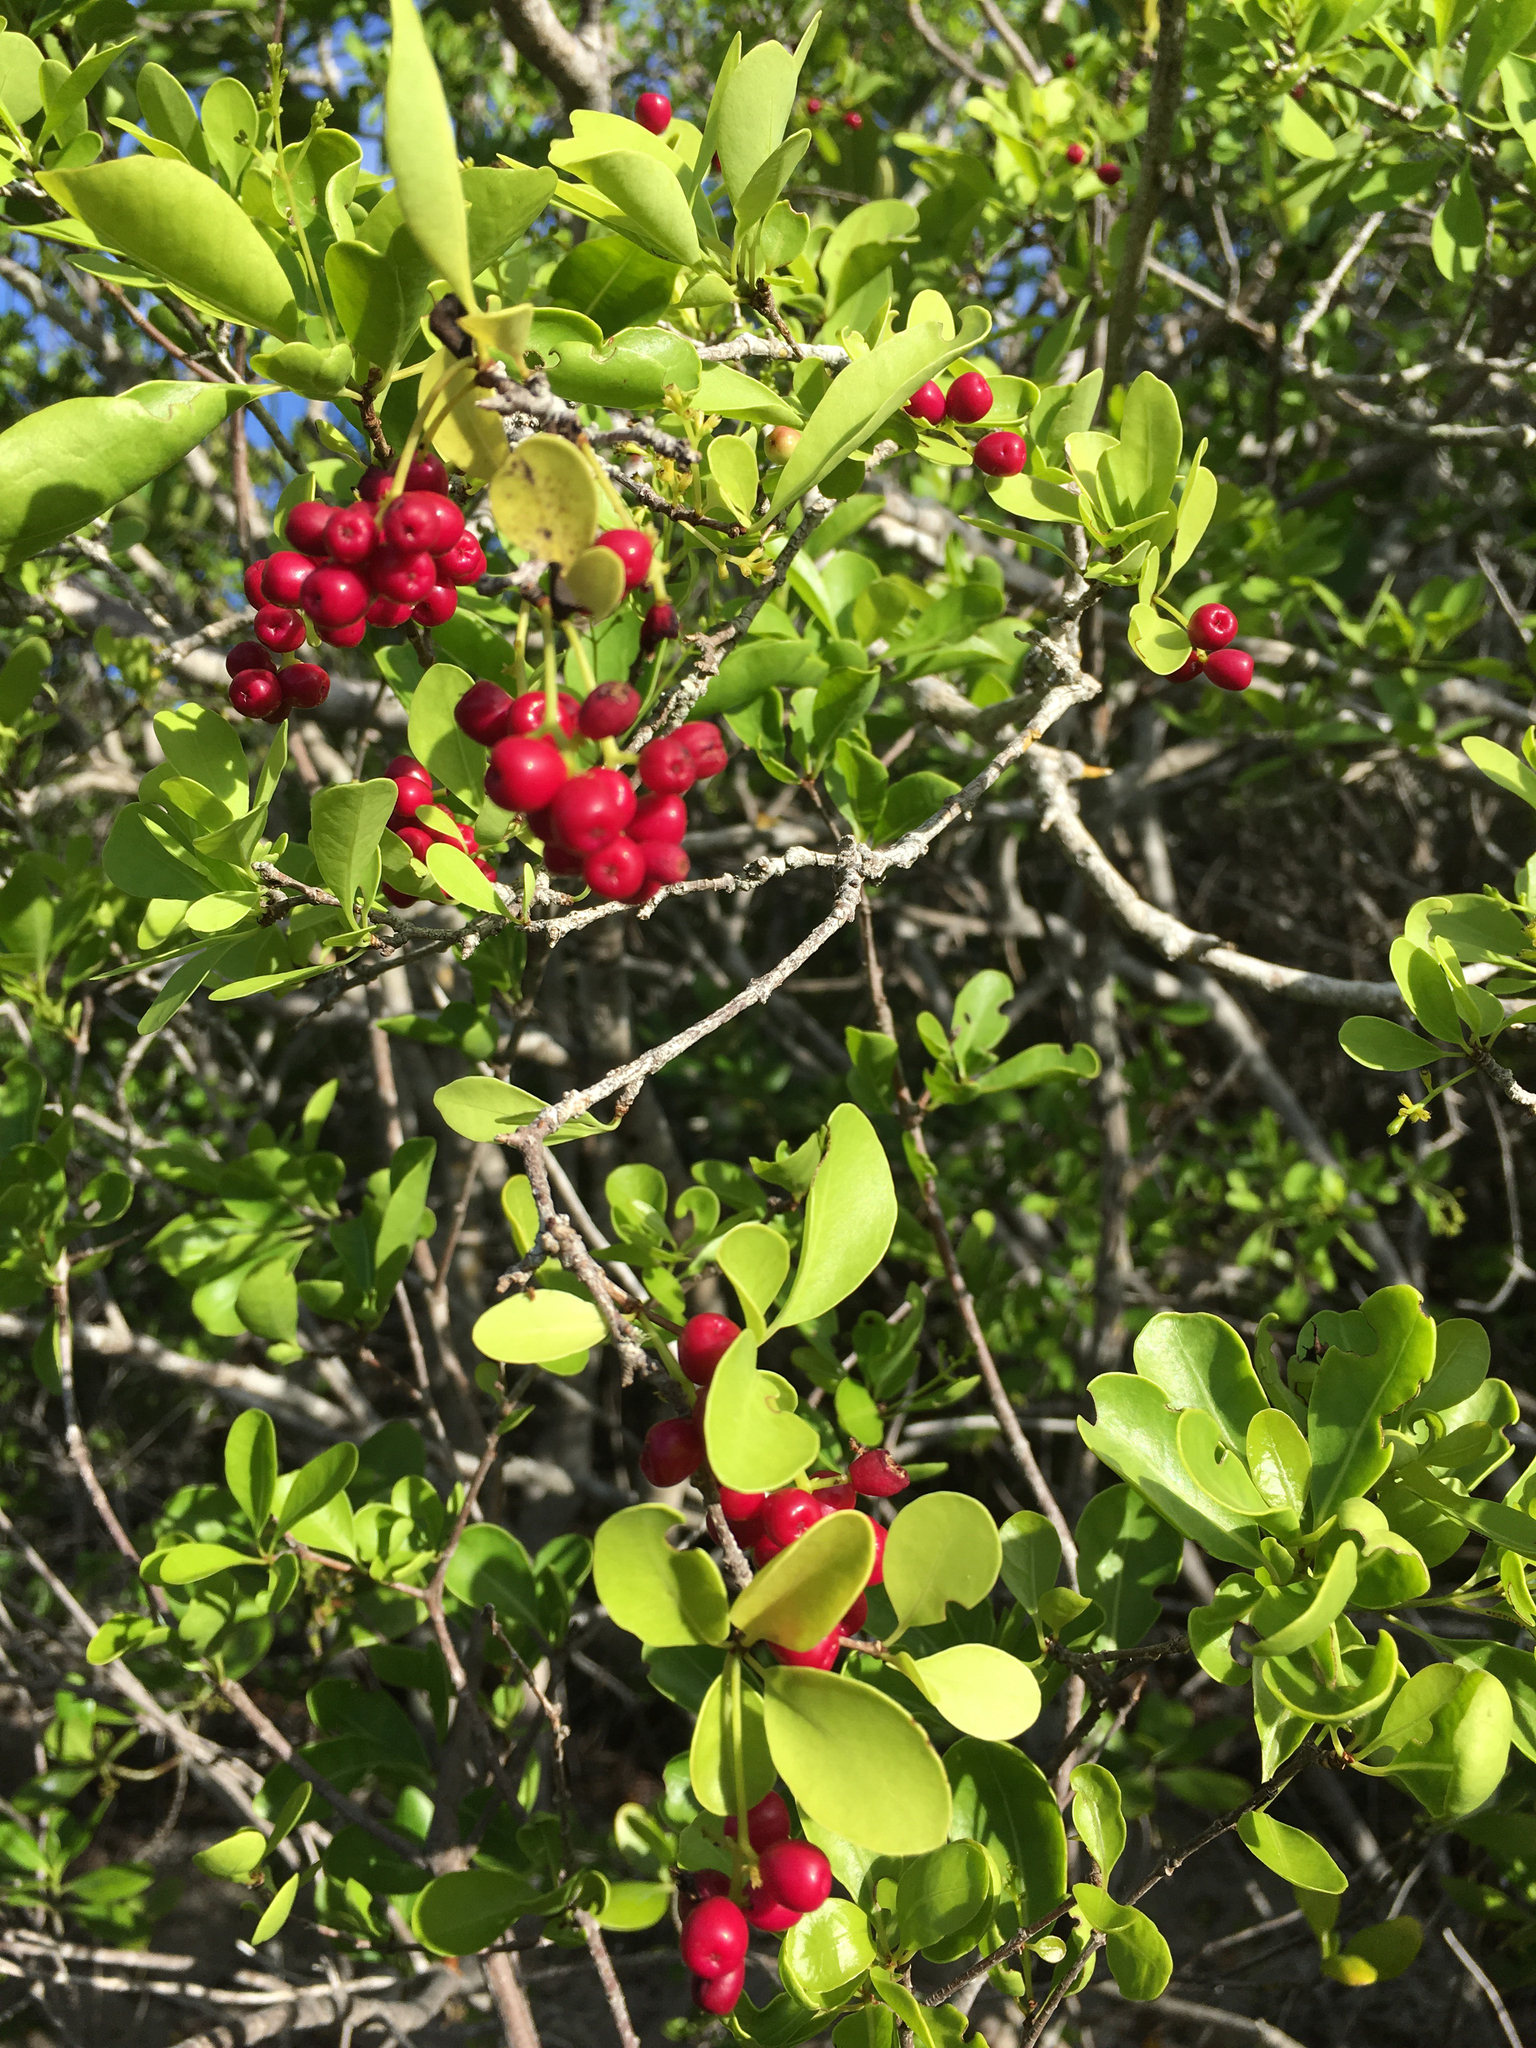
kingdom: Plantae
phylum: Tracheophyta
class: Magnoliopsida
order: Caryophyllales
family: Nyctaginaceae
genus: Guapira
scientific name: Guapira discolor
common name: Beeftree
